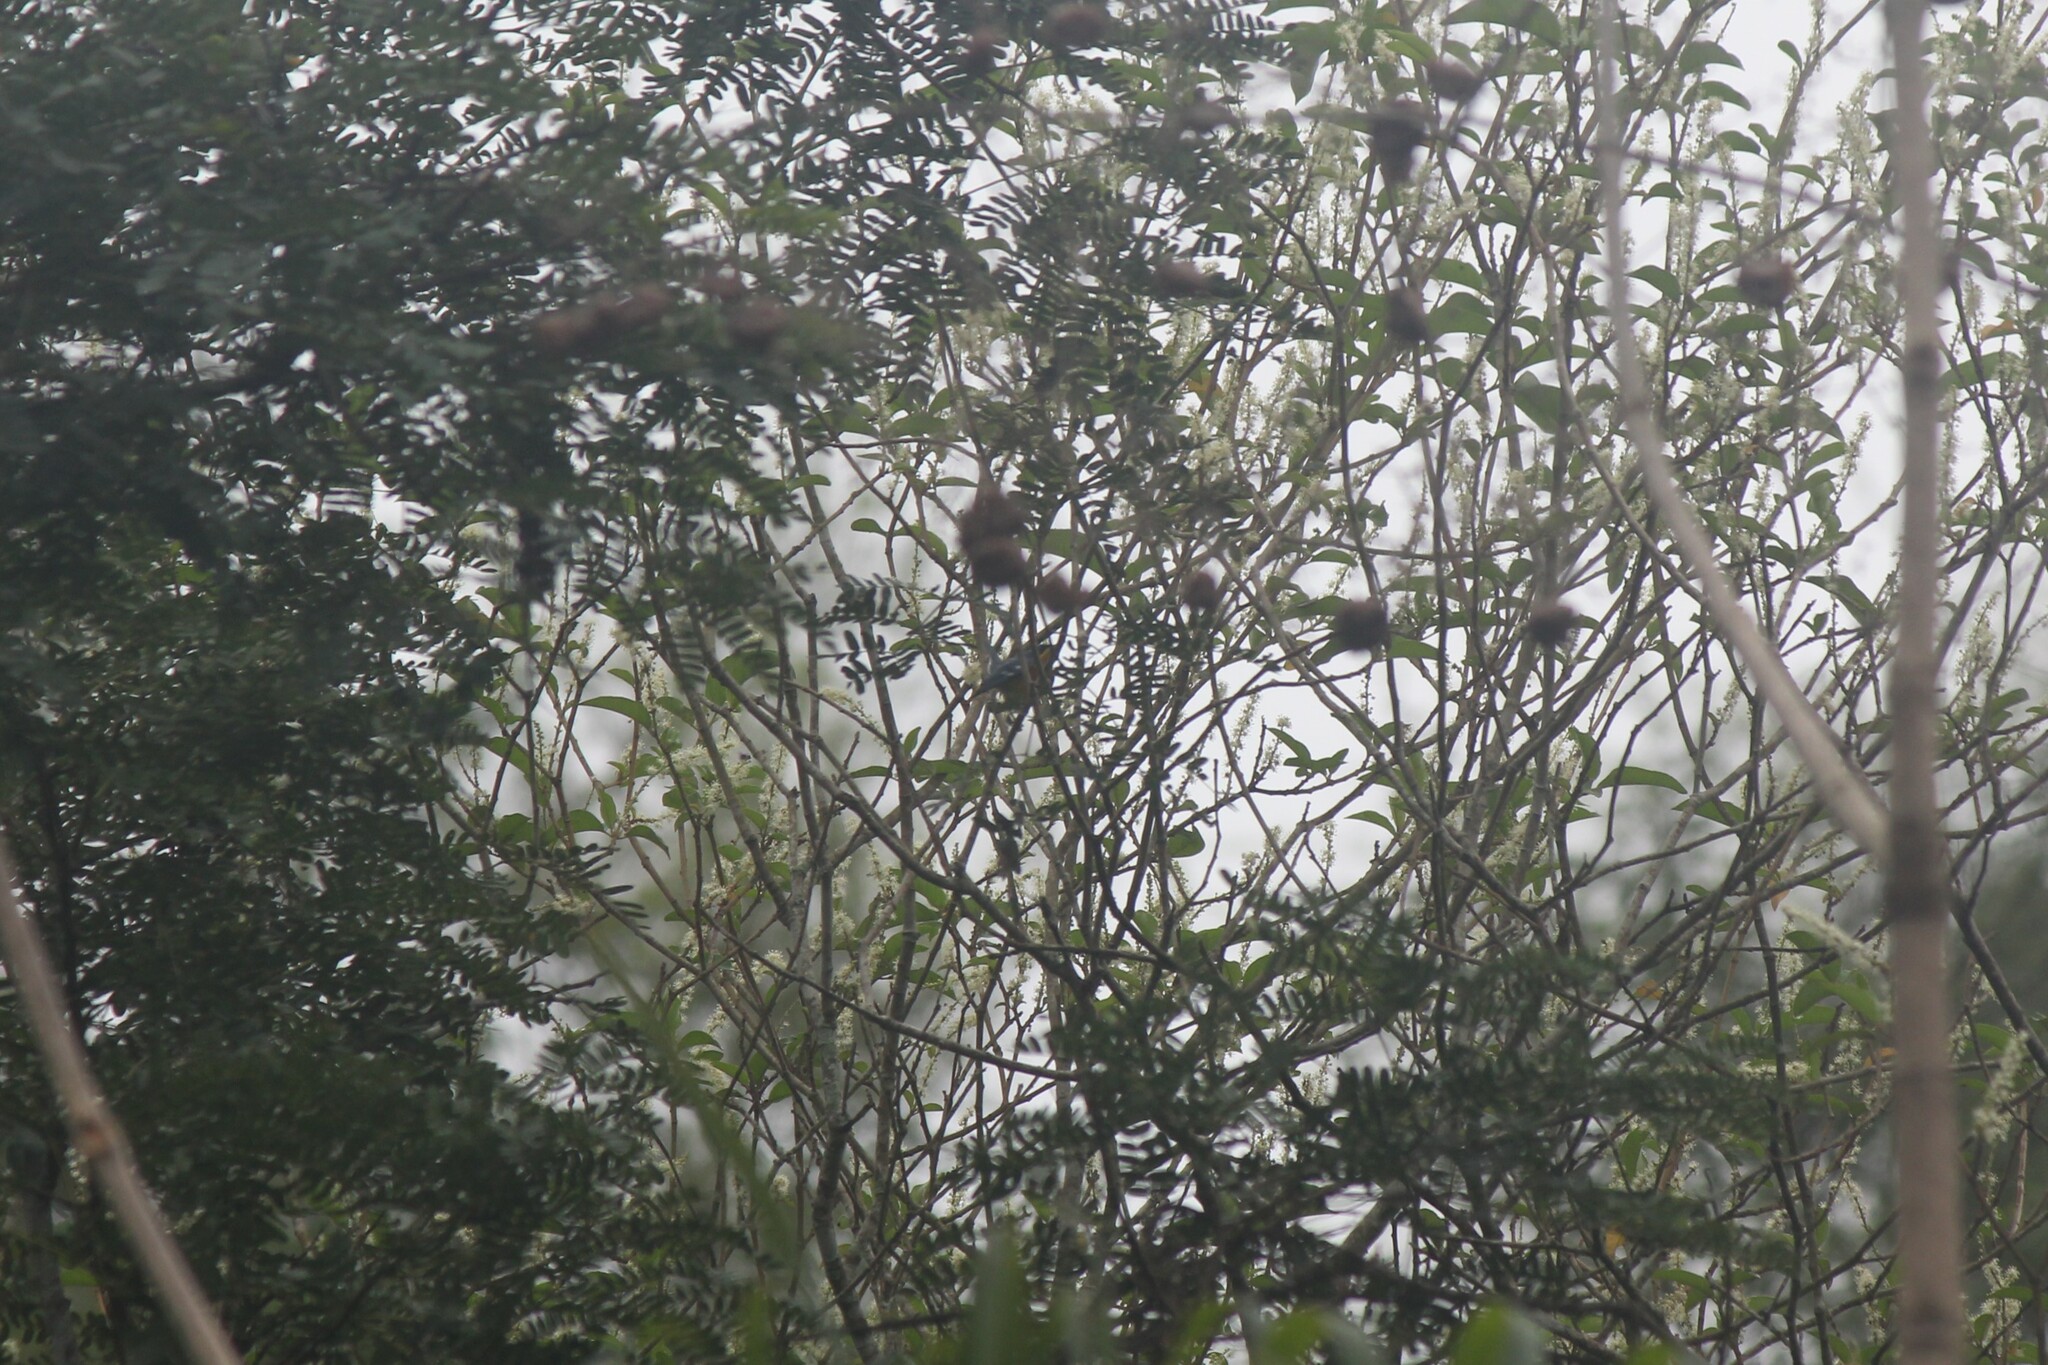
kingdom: Animalia
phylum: Chordata
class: Aves
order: Passeriformes
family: Parulidae
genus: Setophaga
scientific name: Setophaga pitiayumi
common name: Tropical parula
